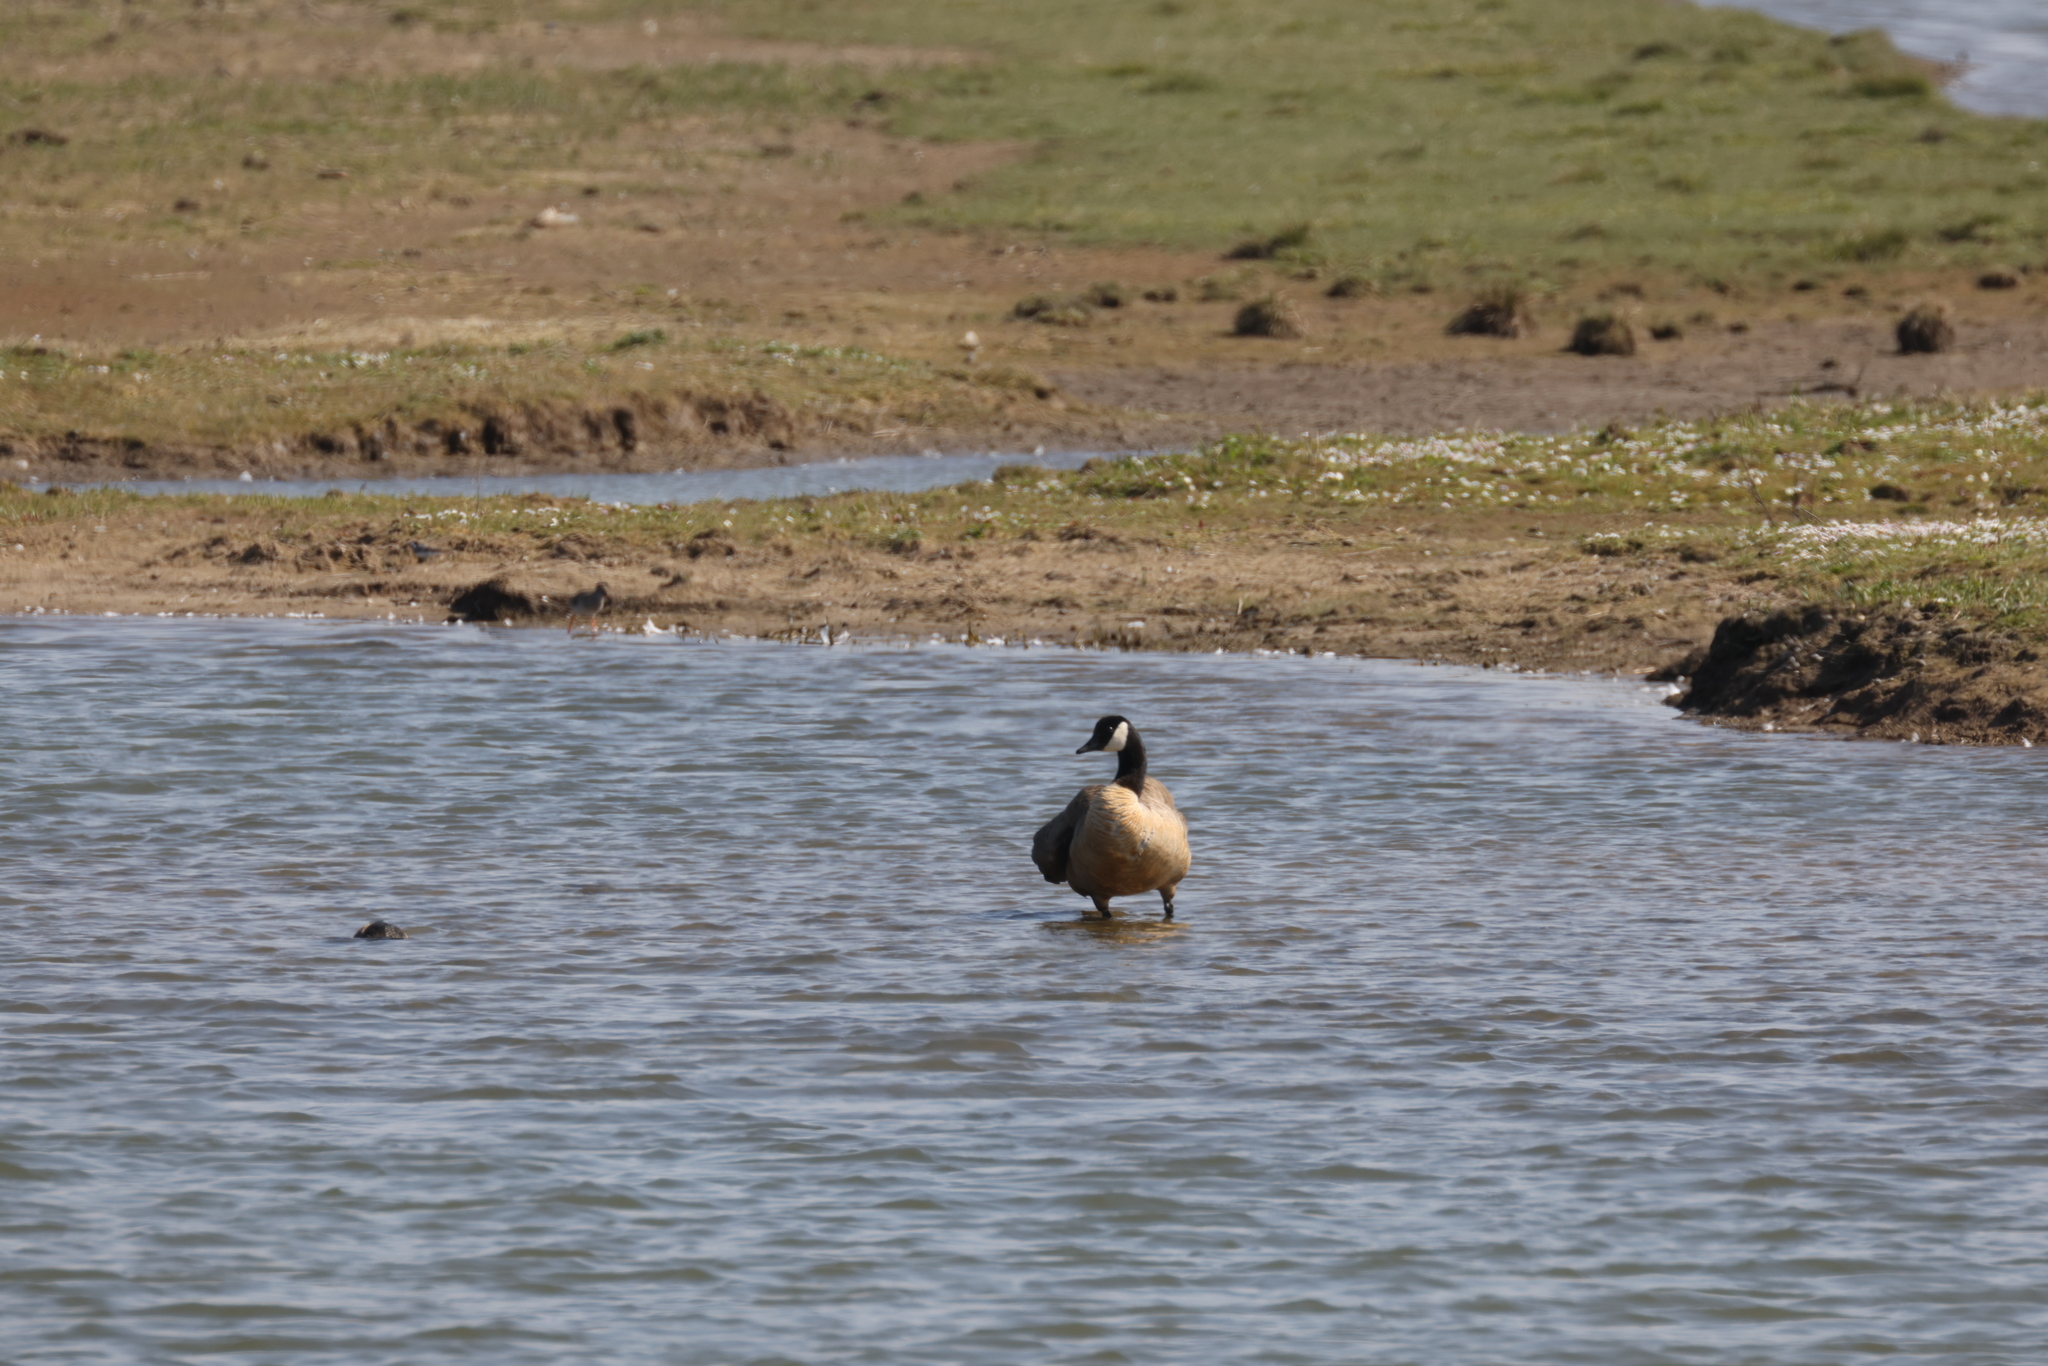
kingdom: Animalia
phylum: Chordata
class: Aves
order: Anseriformes
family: Anatidae
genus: Branta
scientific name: Branta canadensis
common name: Canada goose
